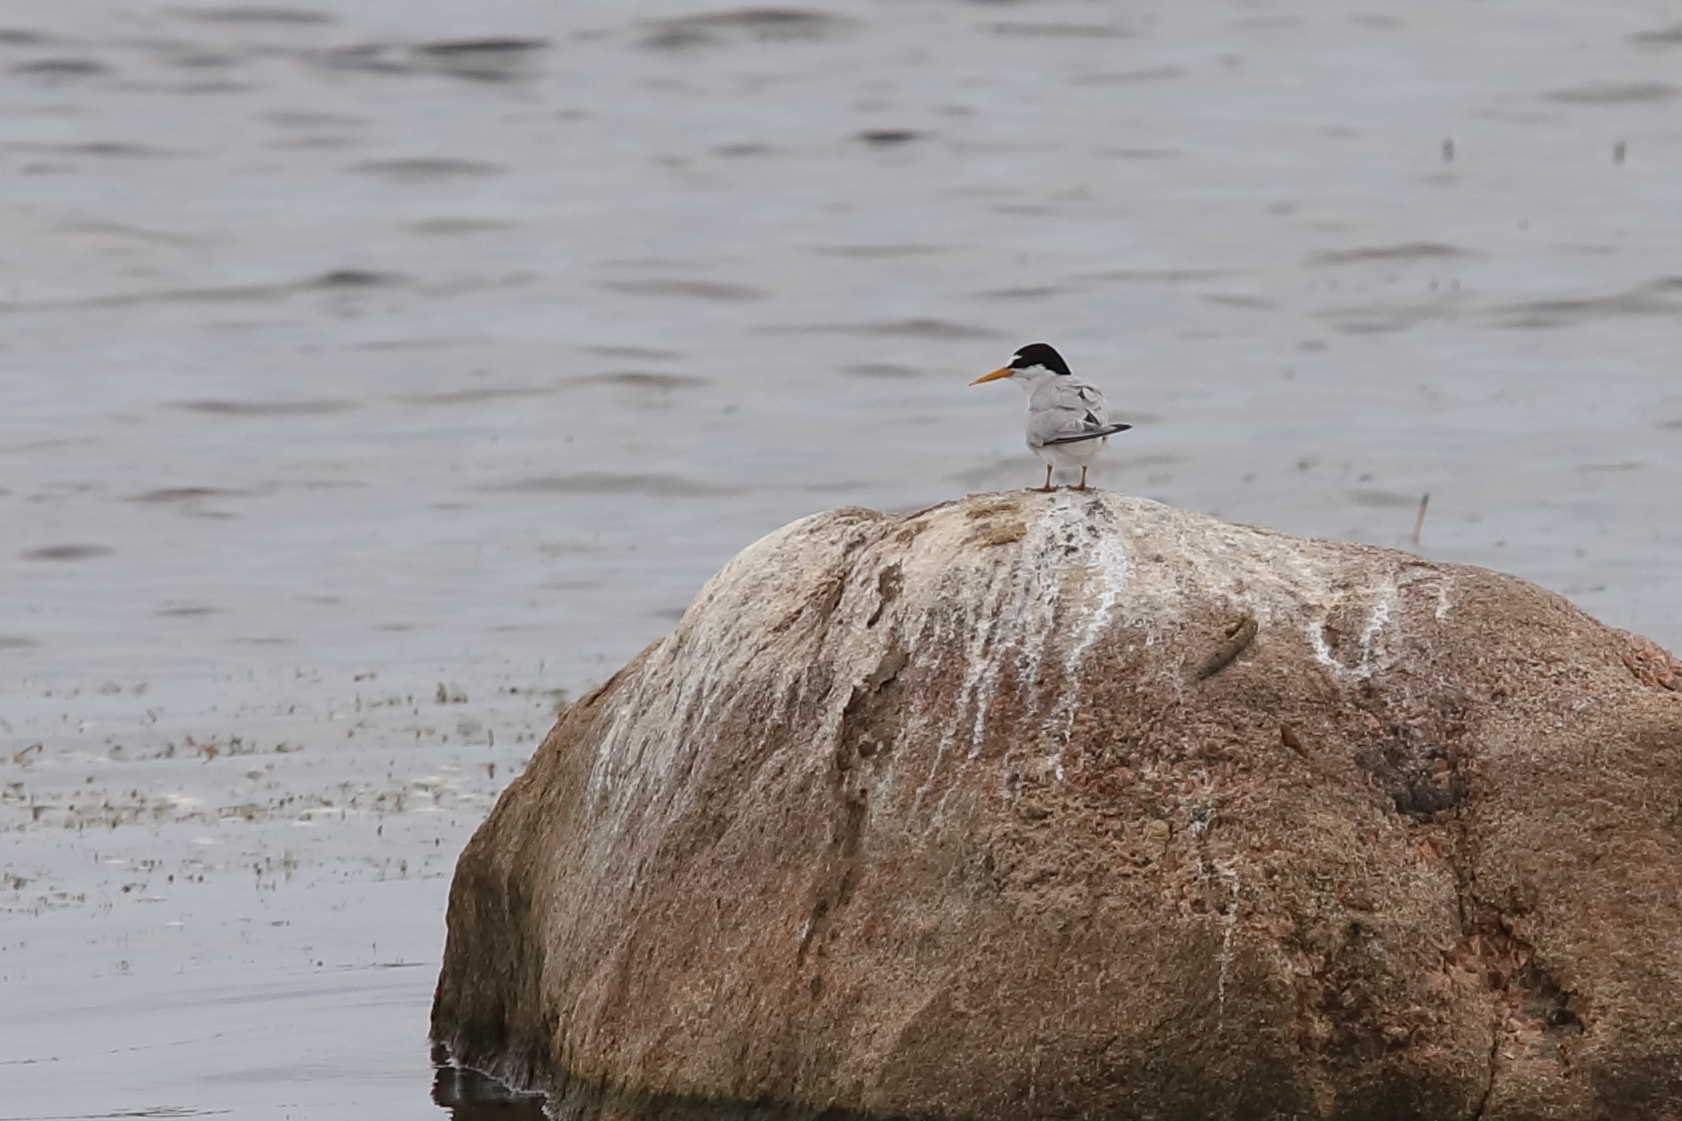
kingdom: Animalia
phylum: Chordata
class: Aves
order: Charadriiformes
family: Laridae
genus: Sternula
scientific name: Sternula antillarum
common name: Least tern
